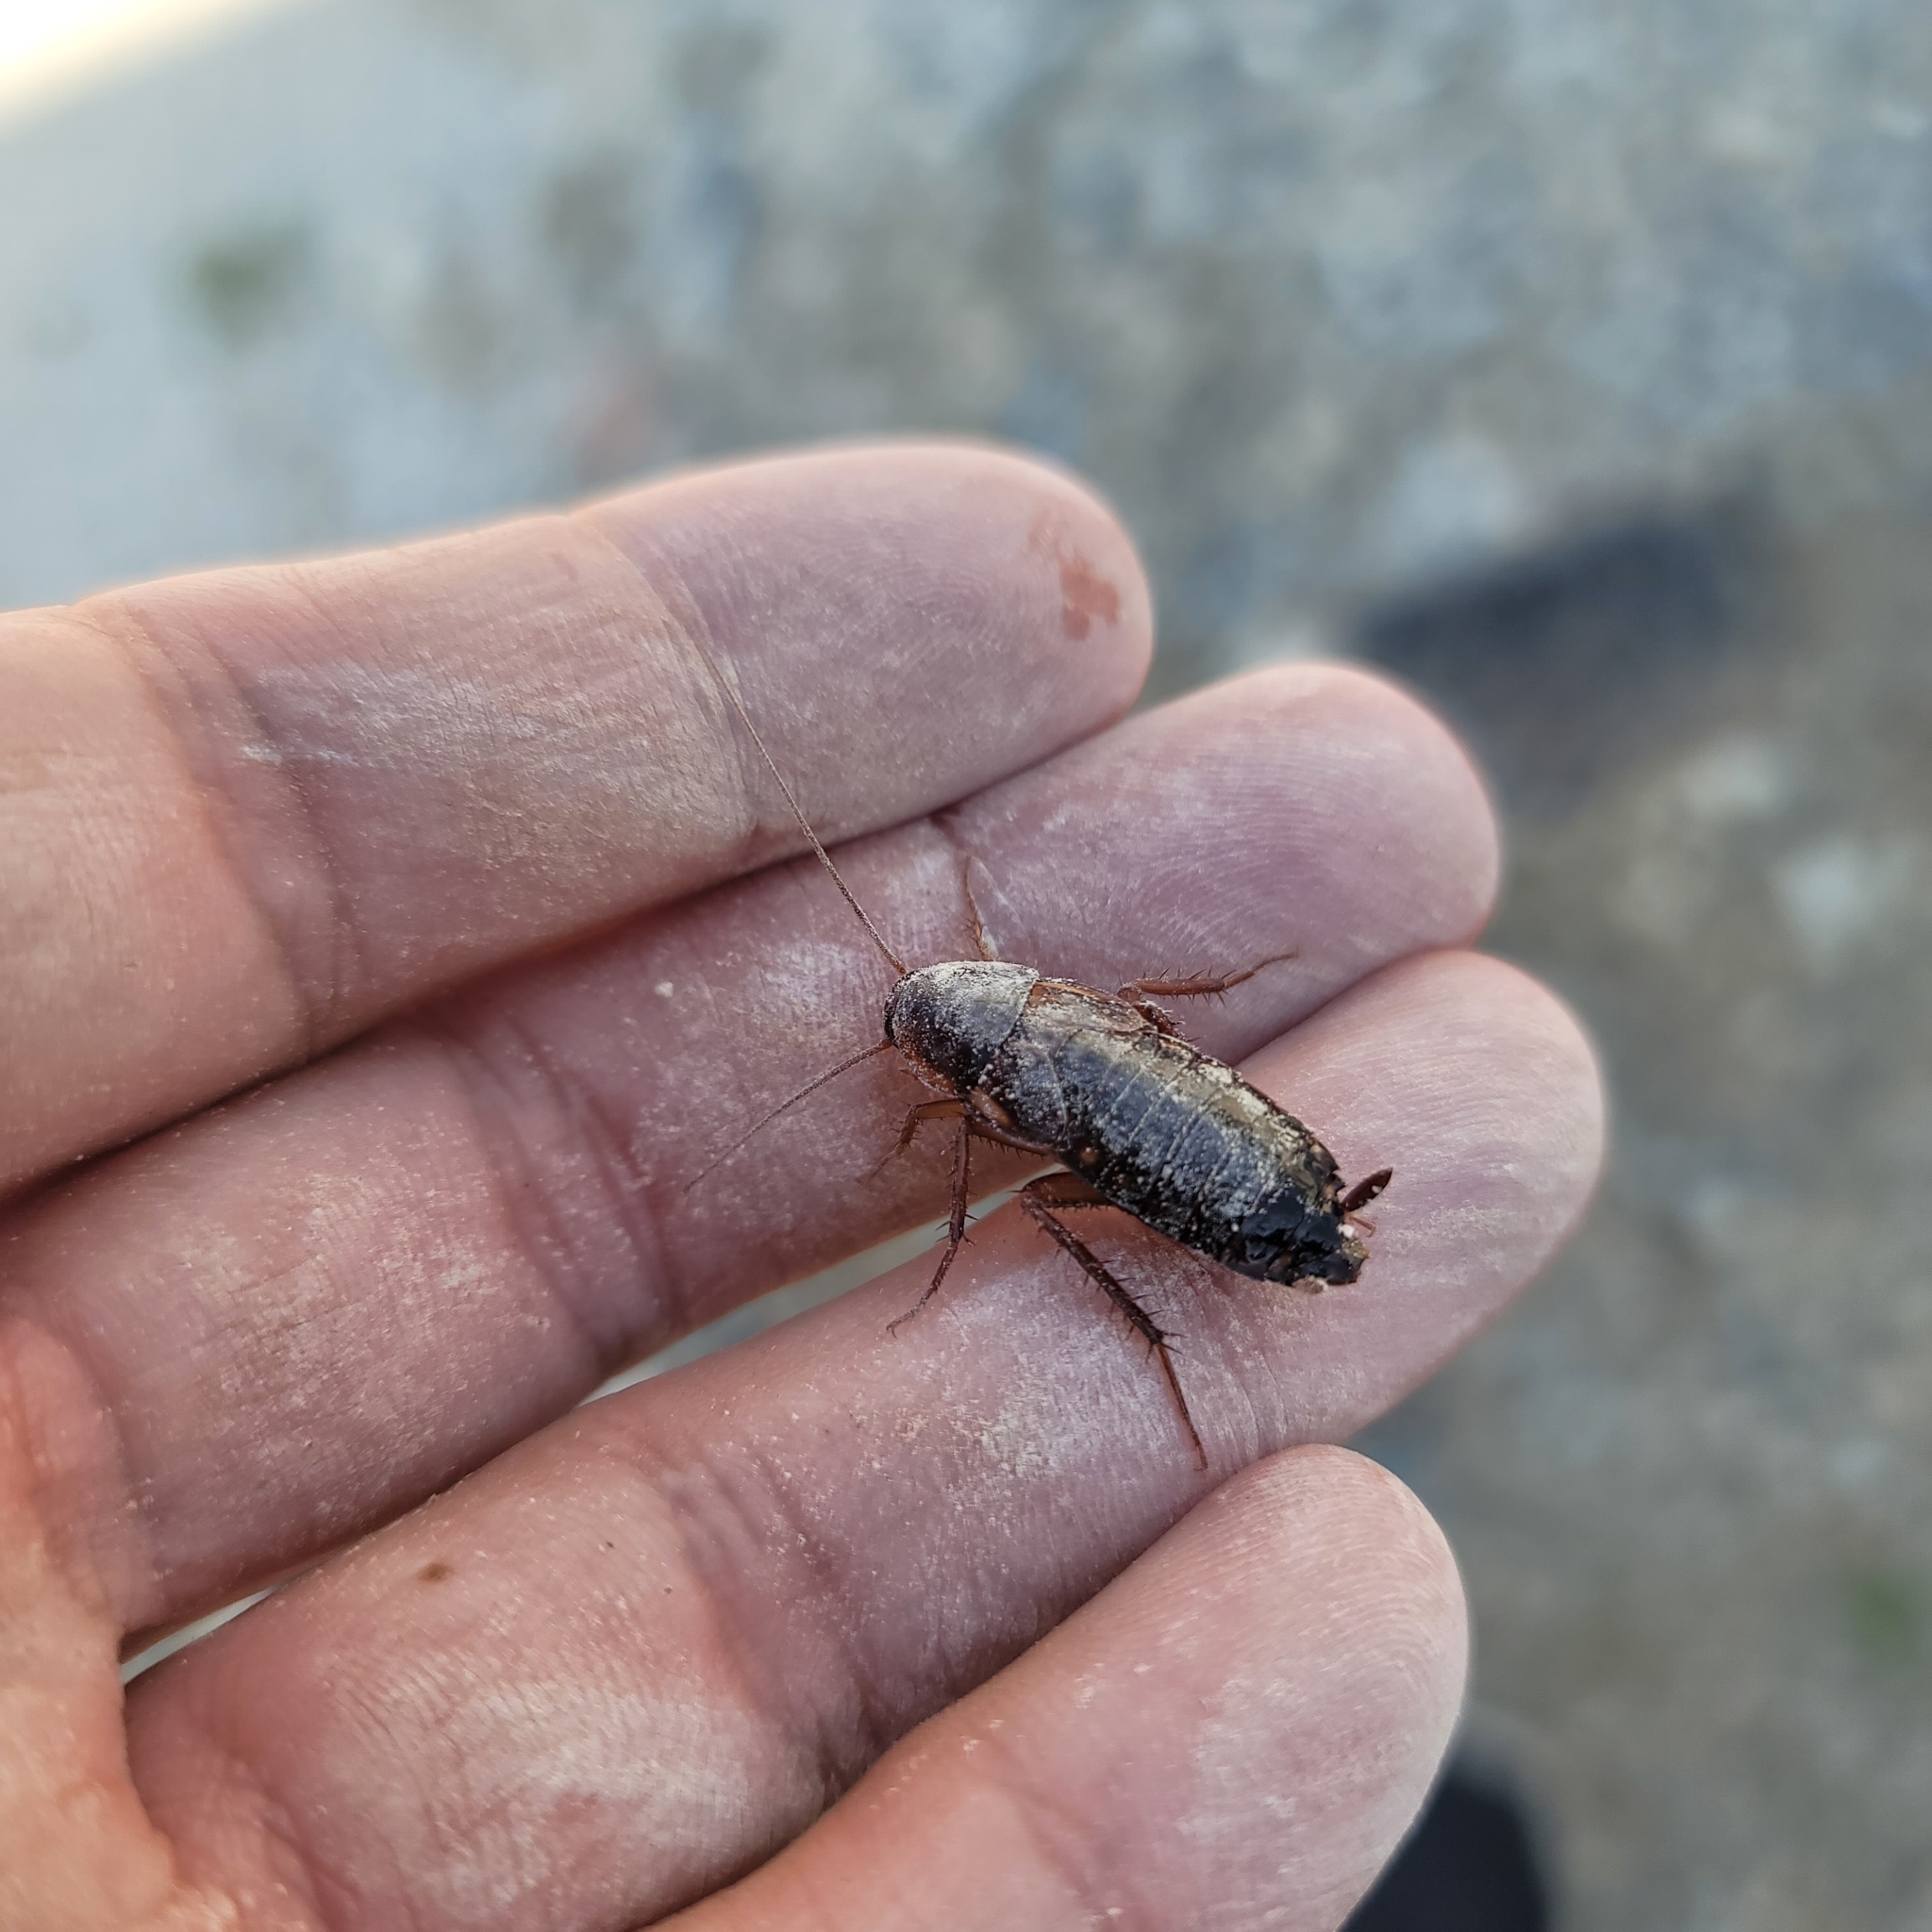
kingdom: Animalia
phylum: Arthropoda
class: Insecta
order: Blattodea
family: Blattidae
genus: Periplaneta
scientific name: Periplaneta lateralis
